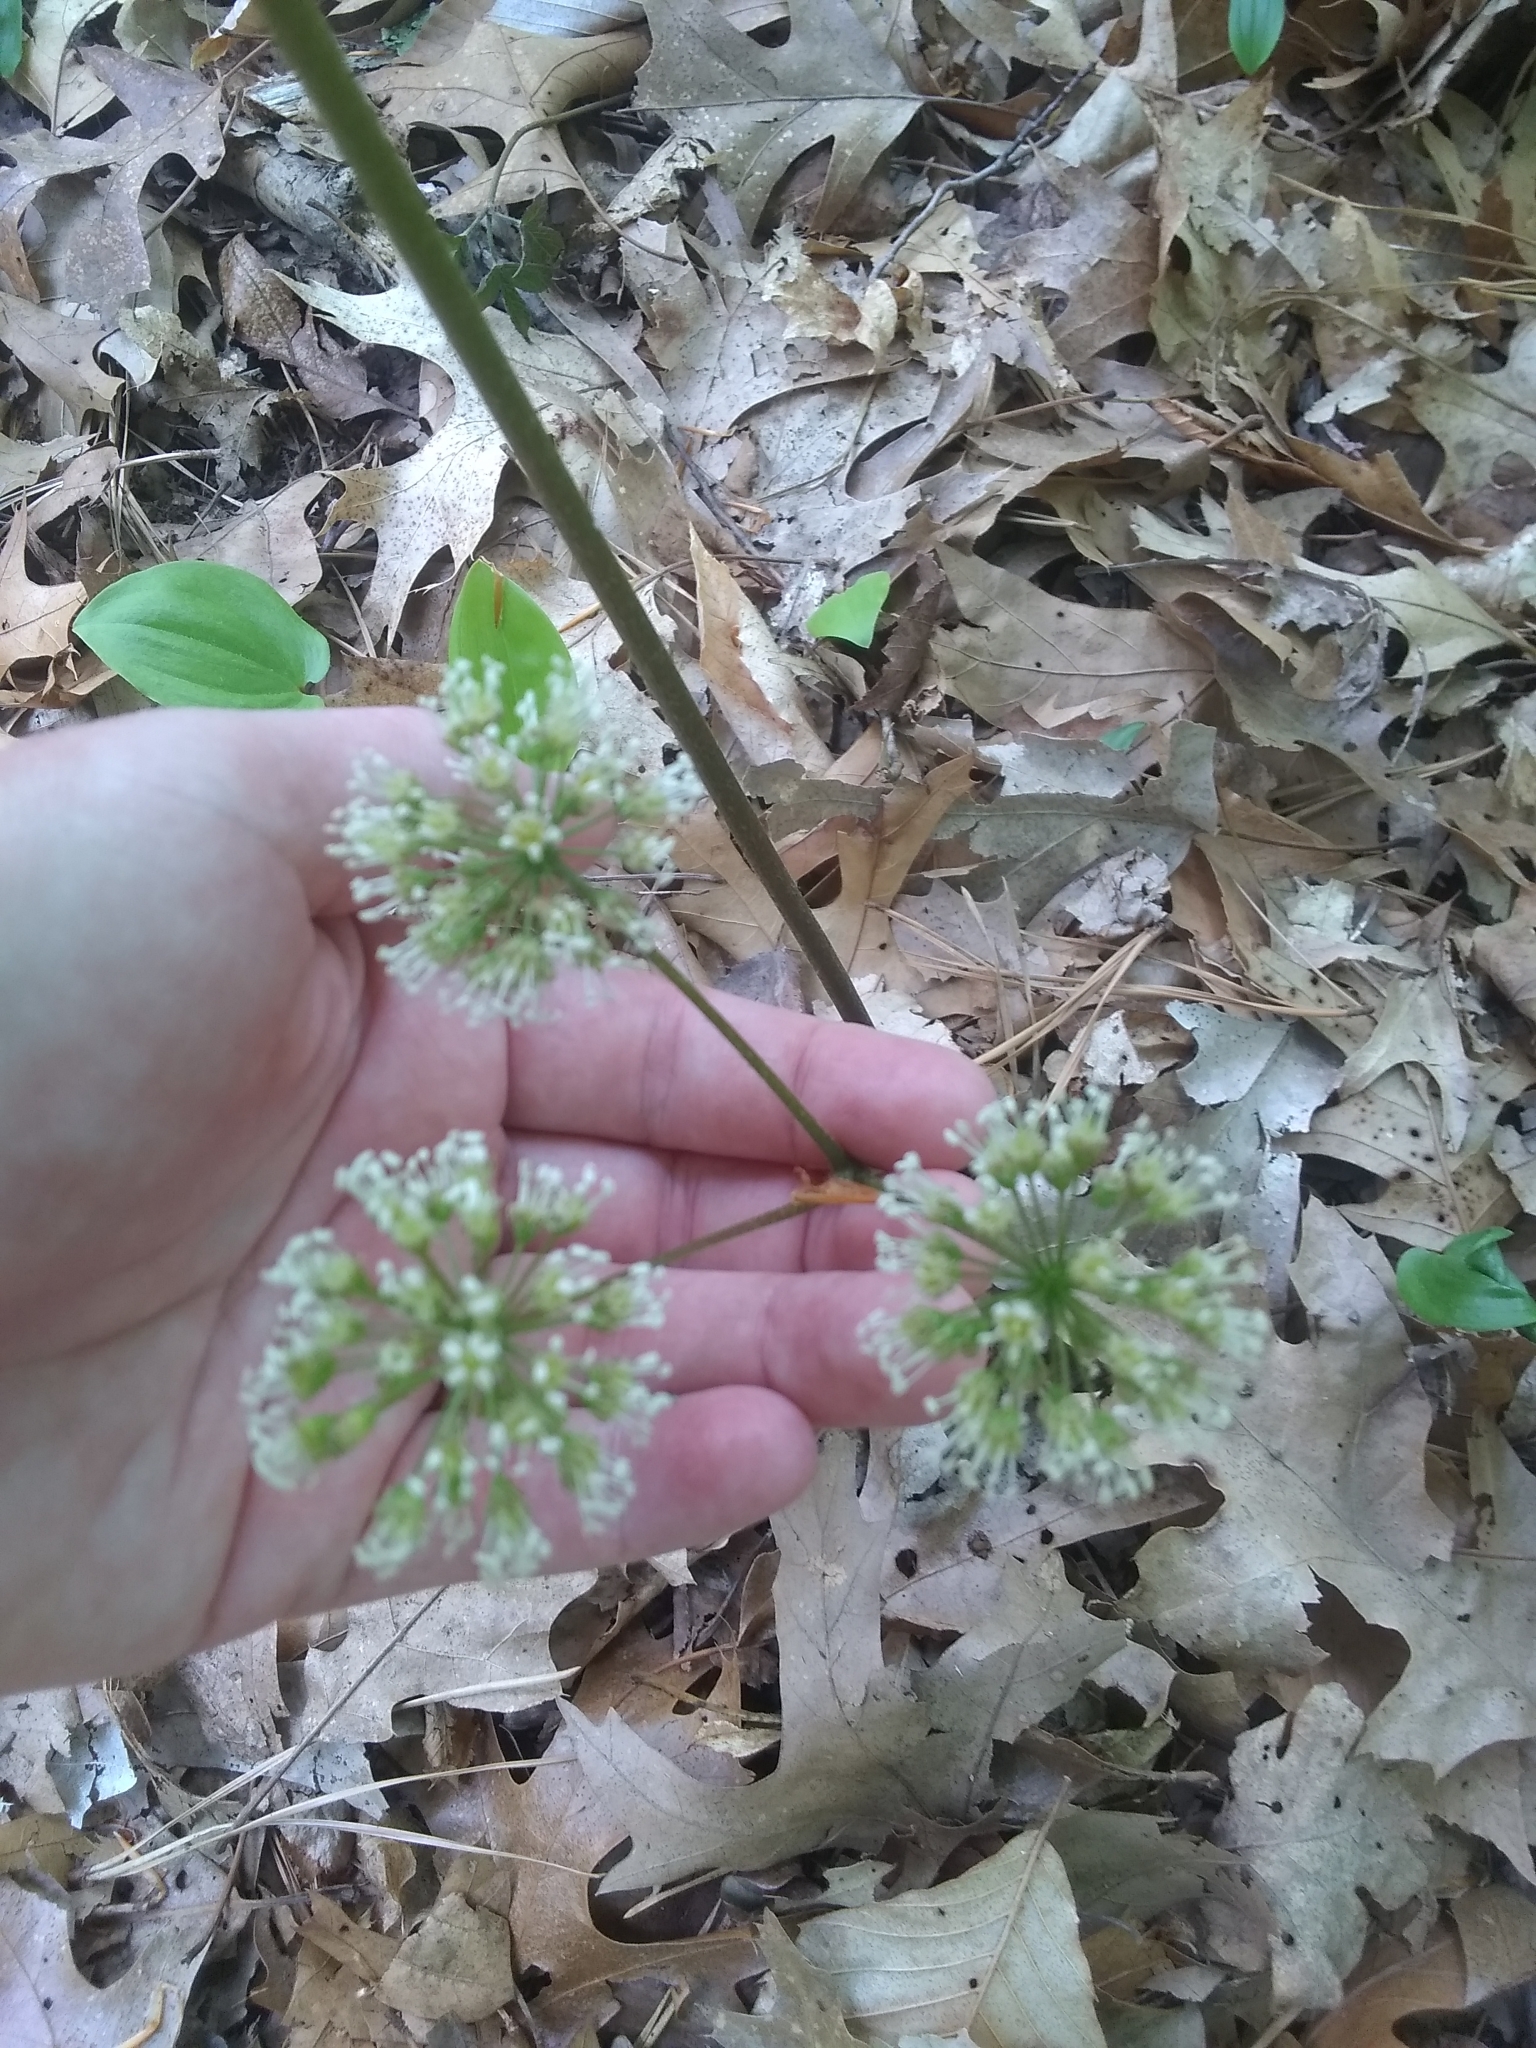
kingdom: Plantae
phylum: Tracheophyta
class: Magnoliopsida
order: Apiales
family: Araliaceae
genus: Aralia
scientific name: Aralia nudicaulis
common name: Wild sarsaparilla
